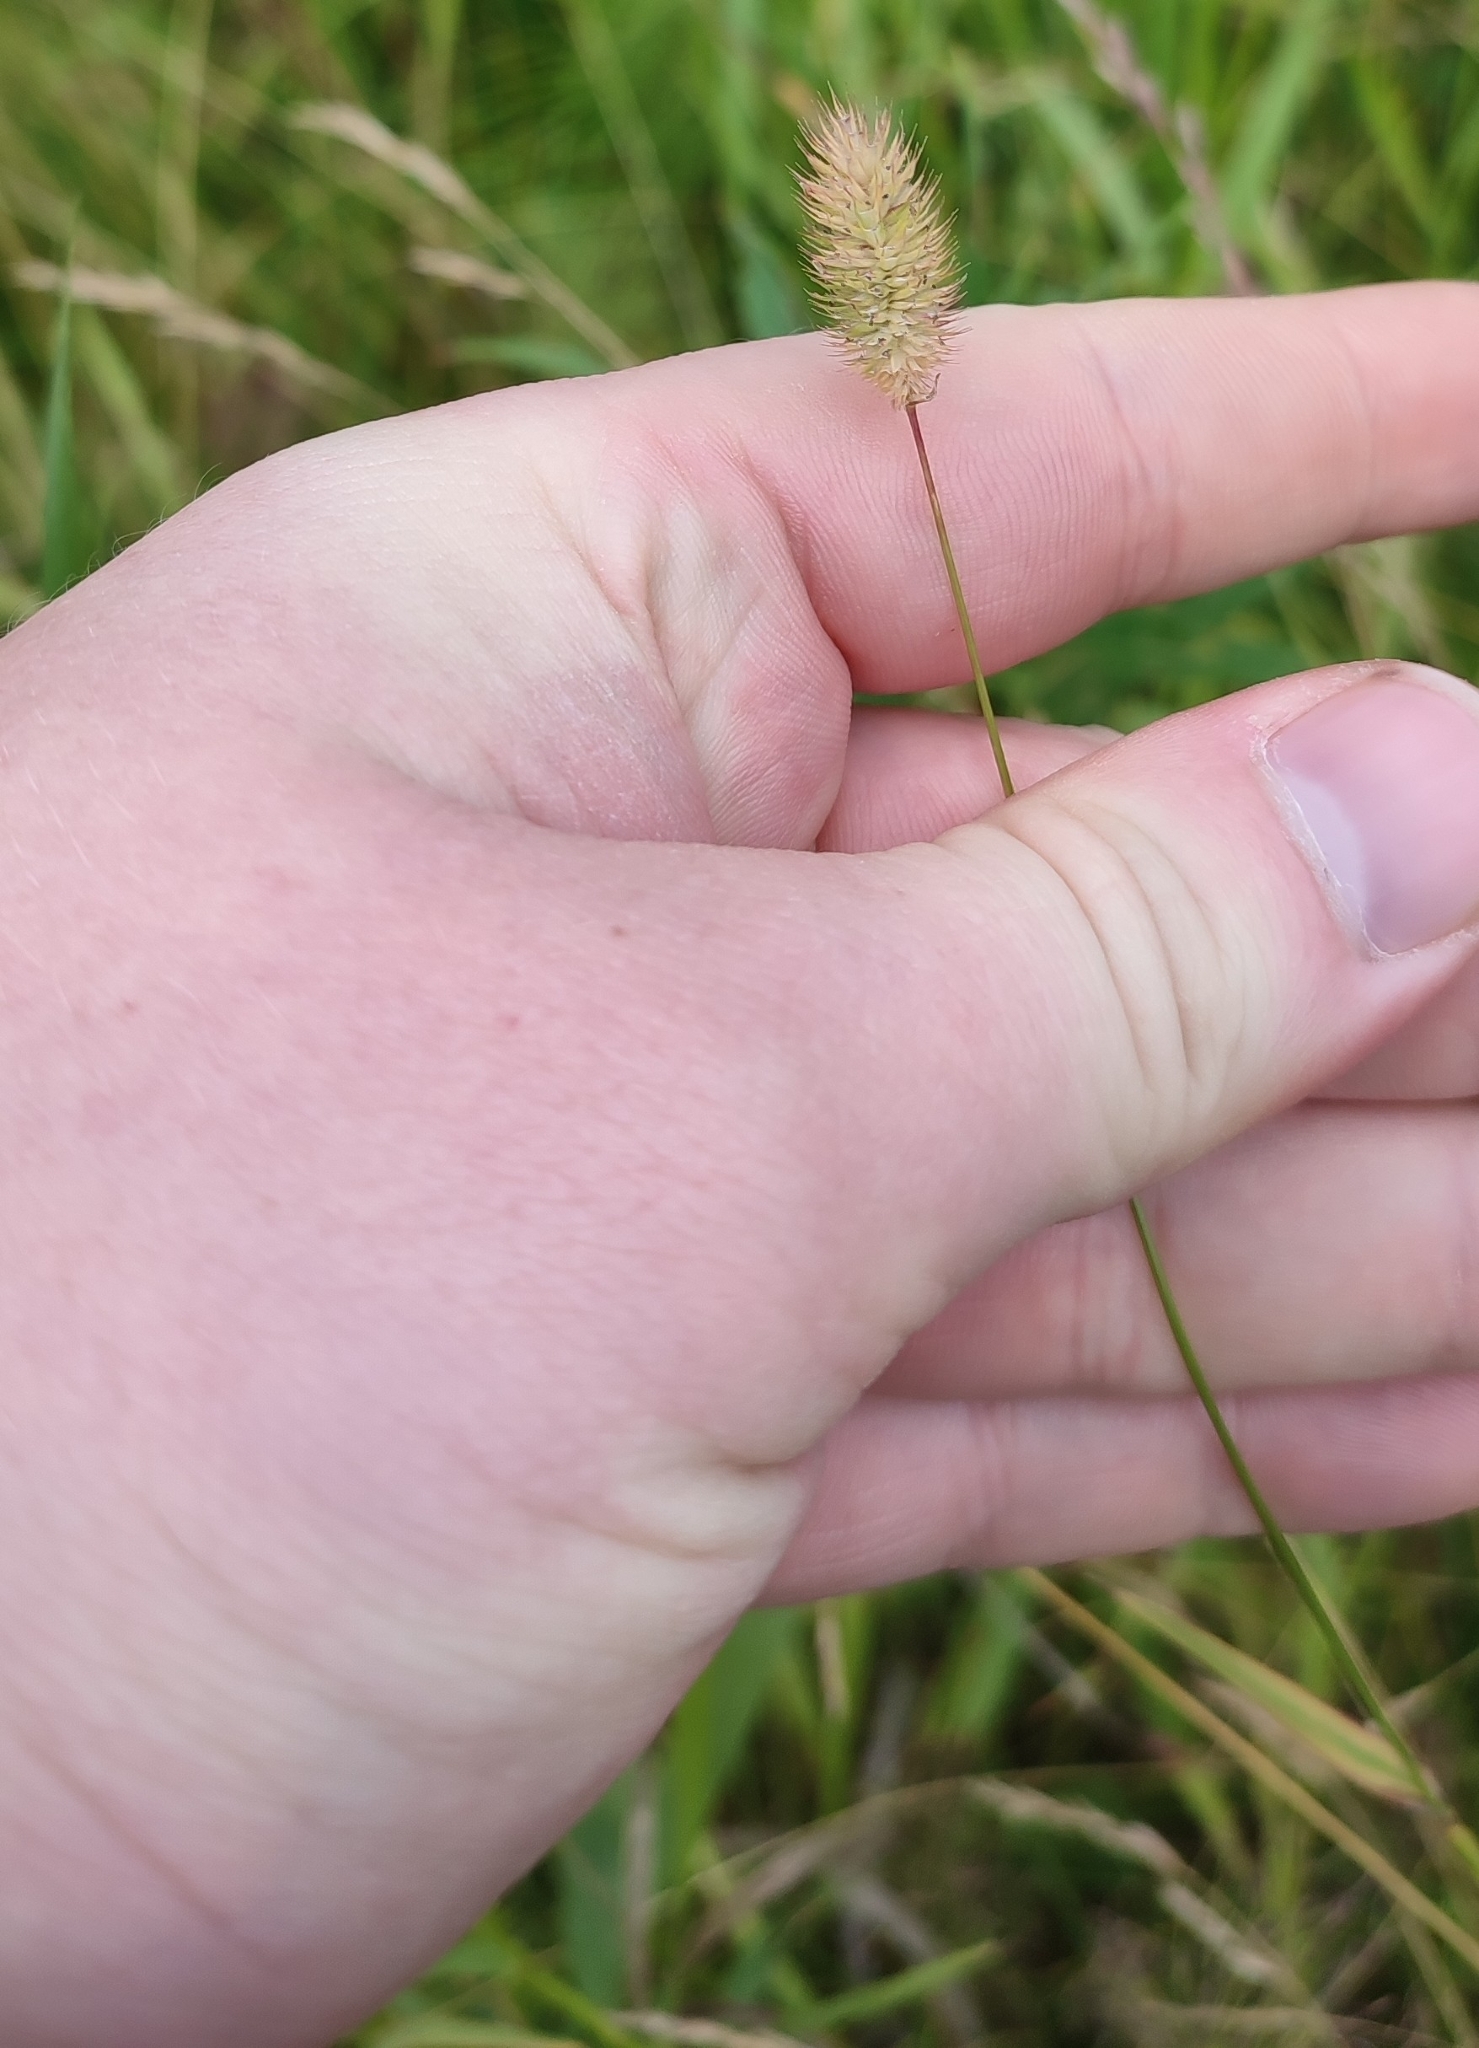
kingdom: Plantae
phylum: Tracheophyta
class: Liliopsida
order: Poales
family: Poaceae
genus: Phleum
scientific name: Phleum pratense
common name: Timothy grass
